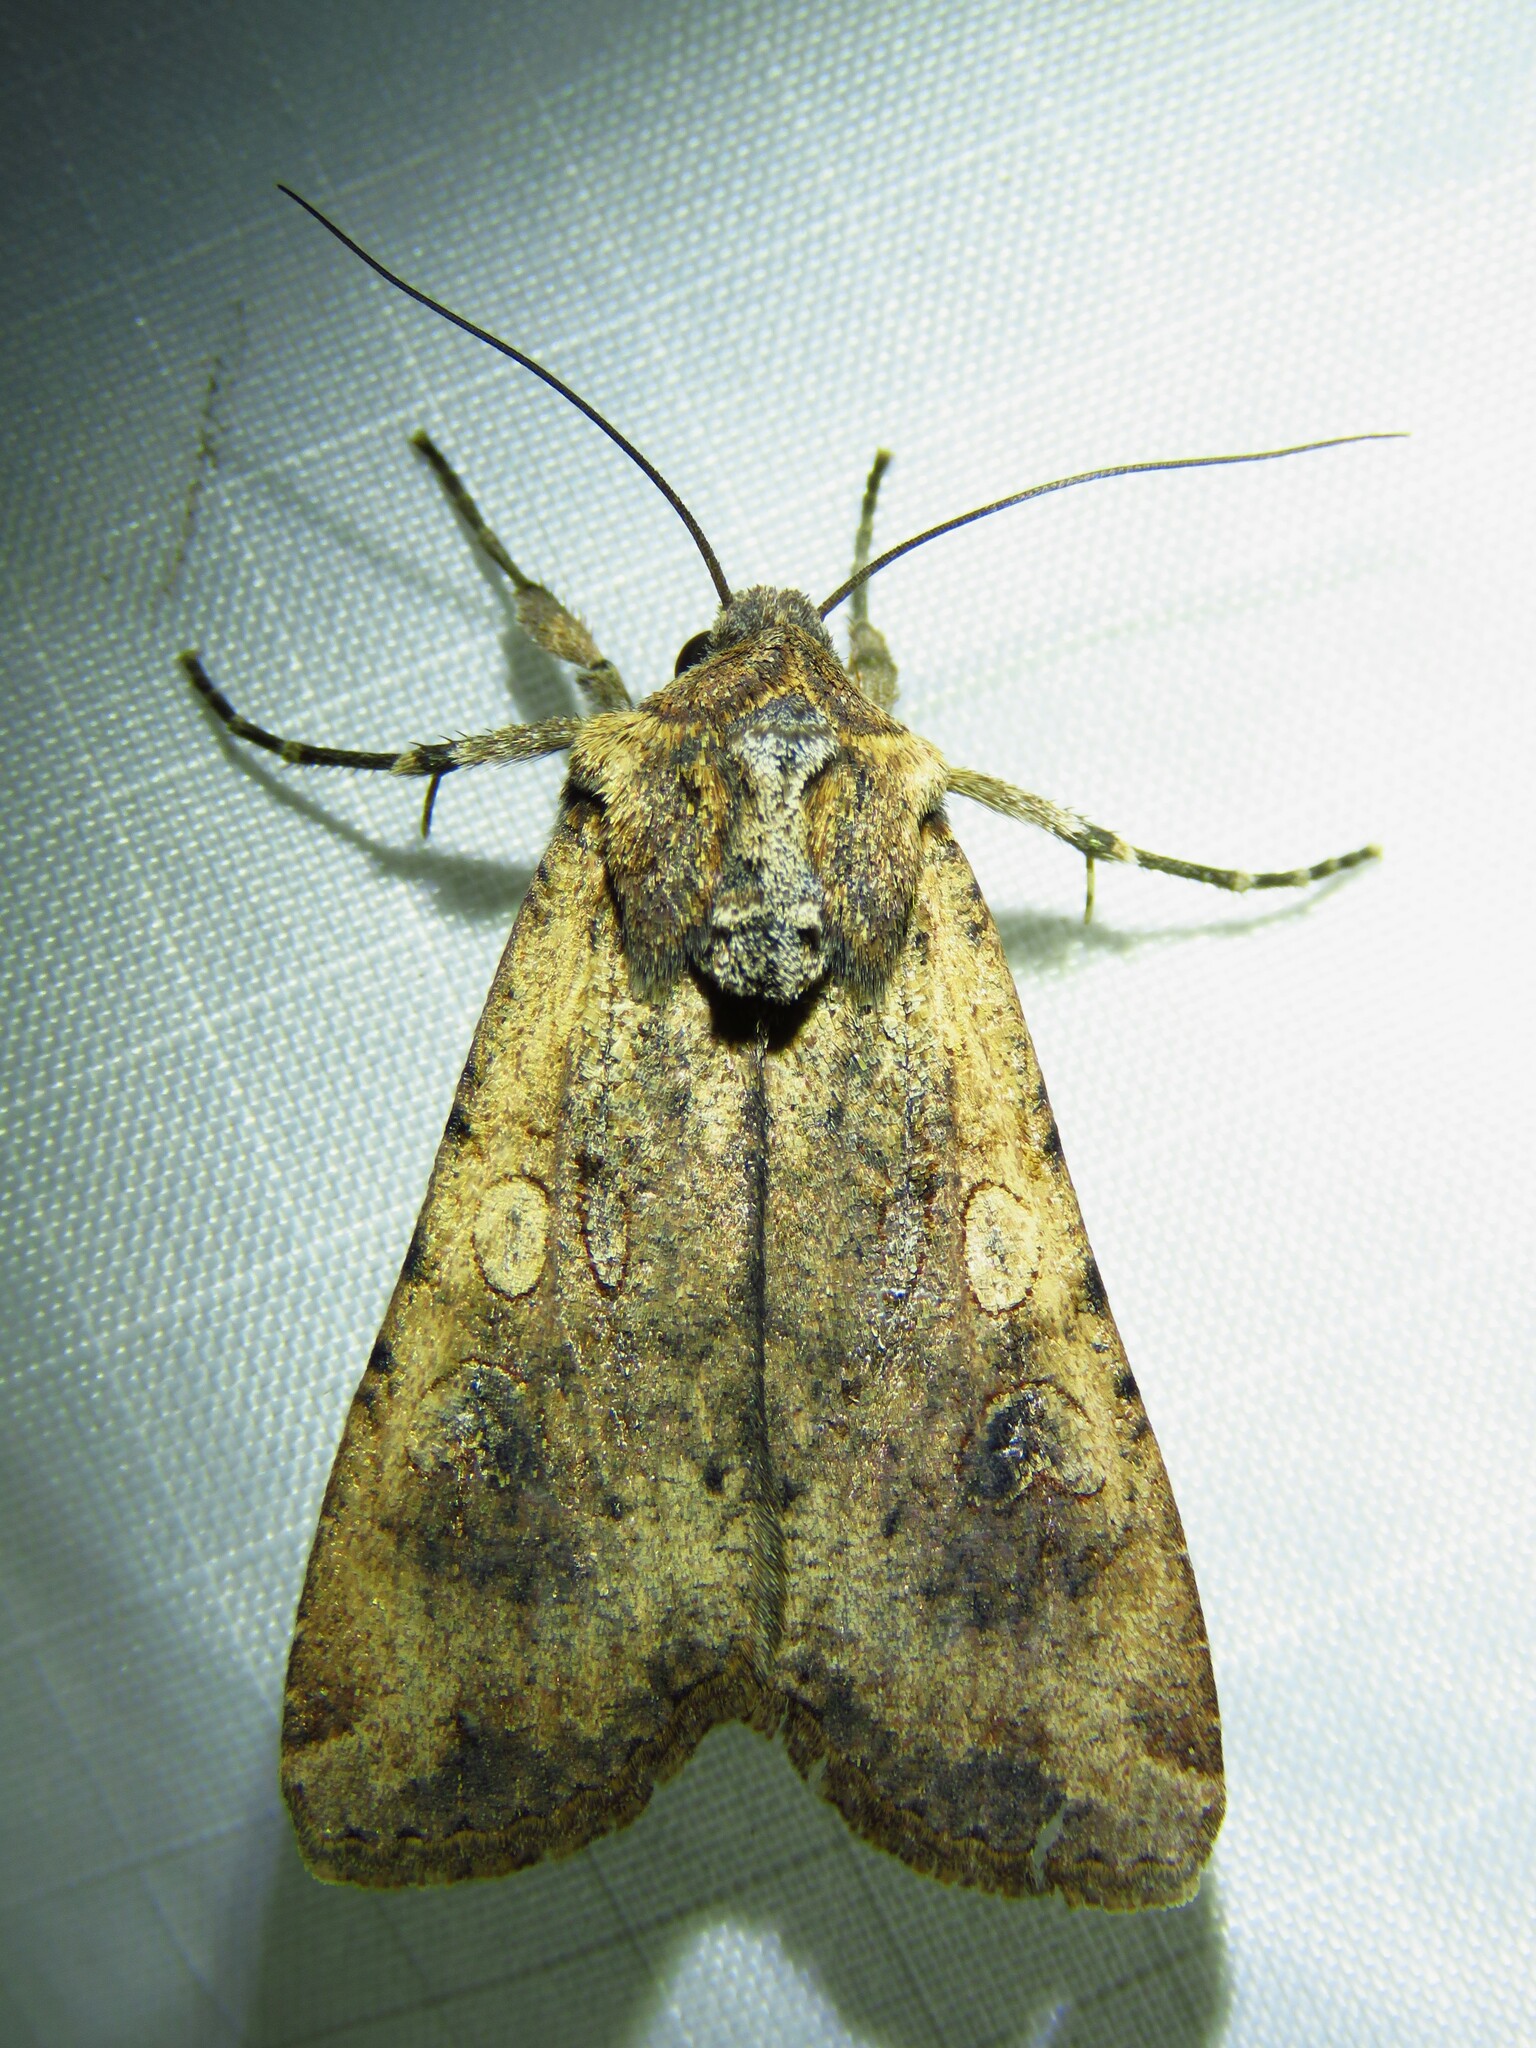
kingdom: Animalia
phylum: Arthropoda
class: Insecta
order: Lepidoptera
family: Noctuidae
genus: Peridroma
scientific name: Peridroma saucia
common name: Pearly underwing
